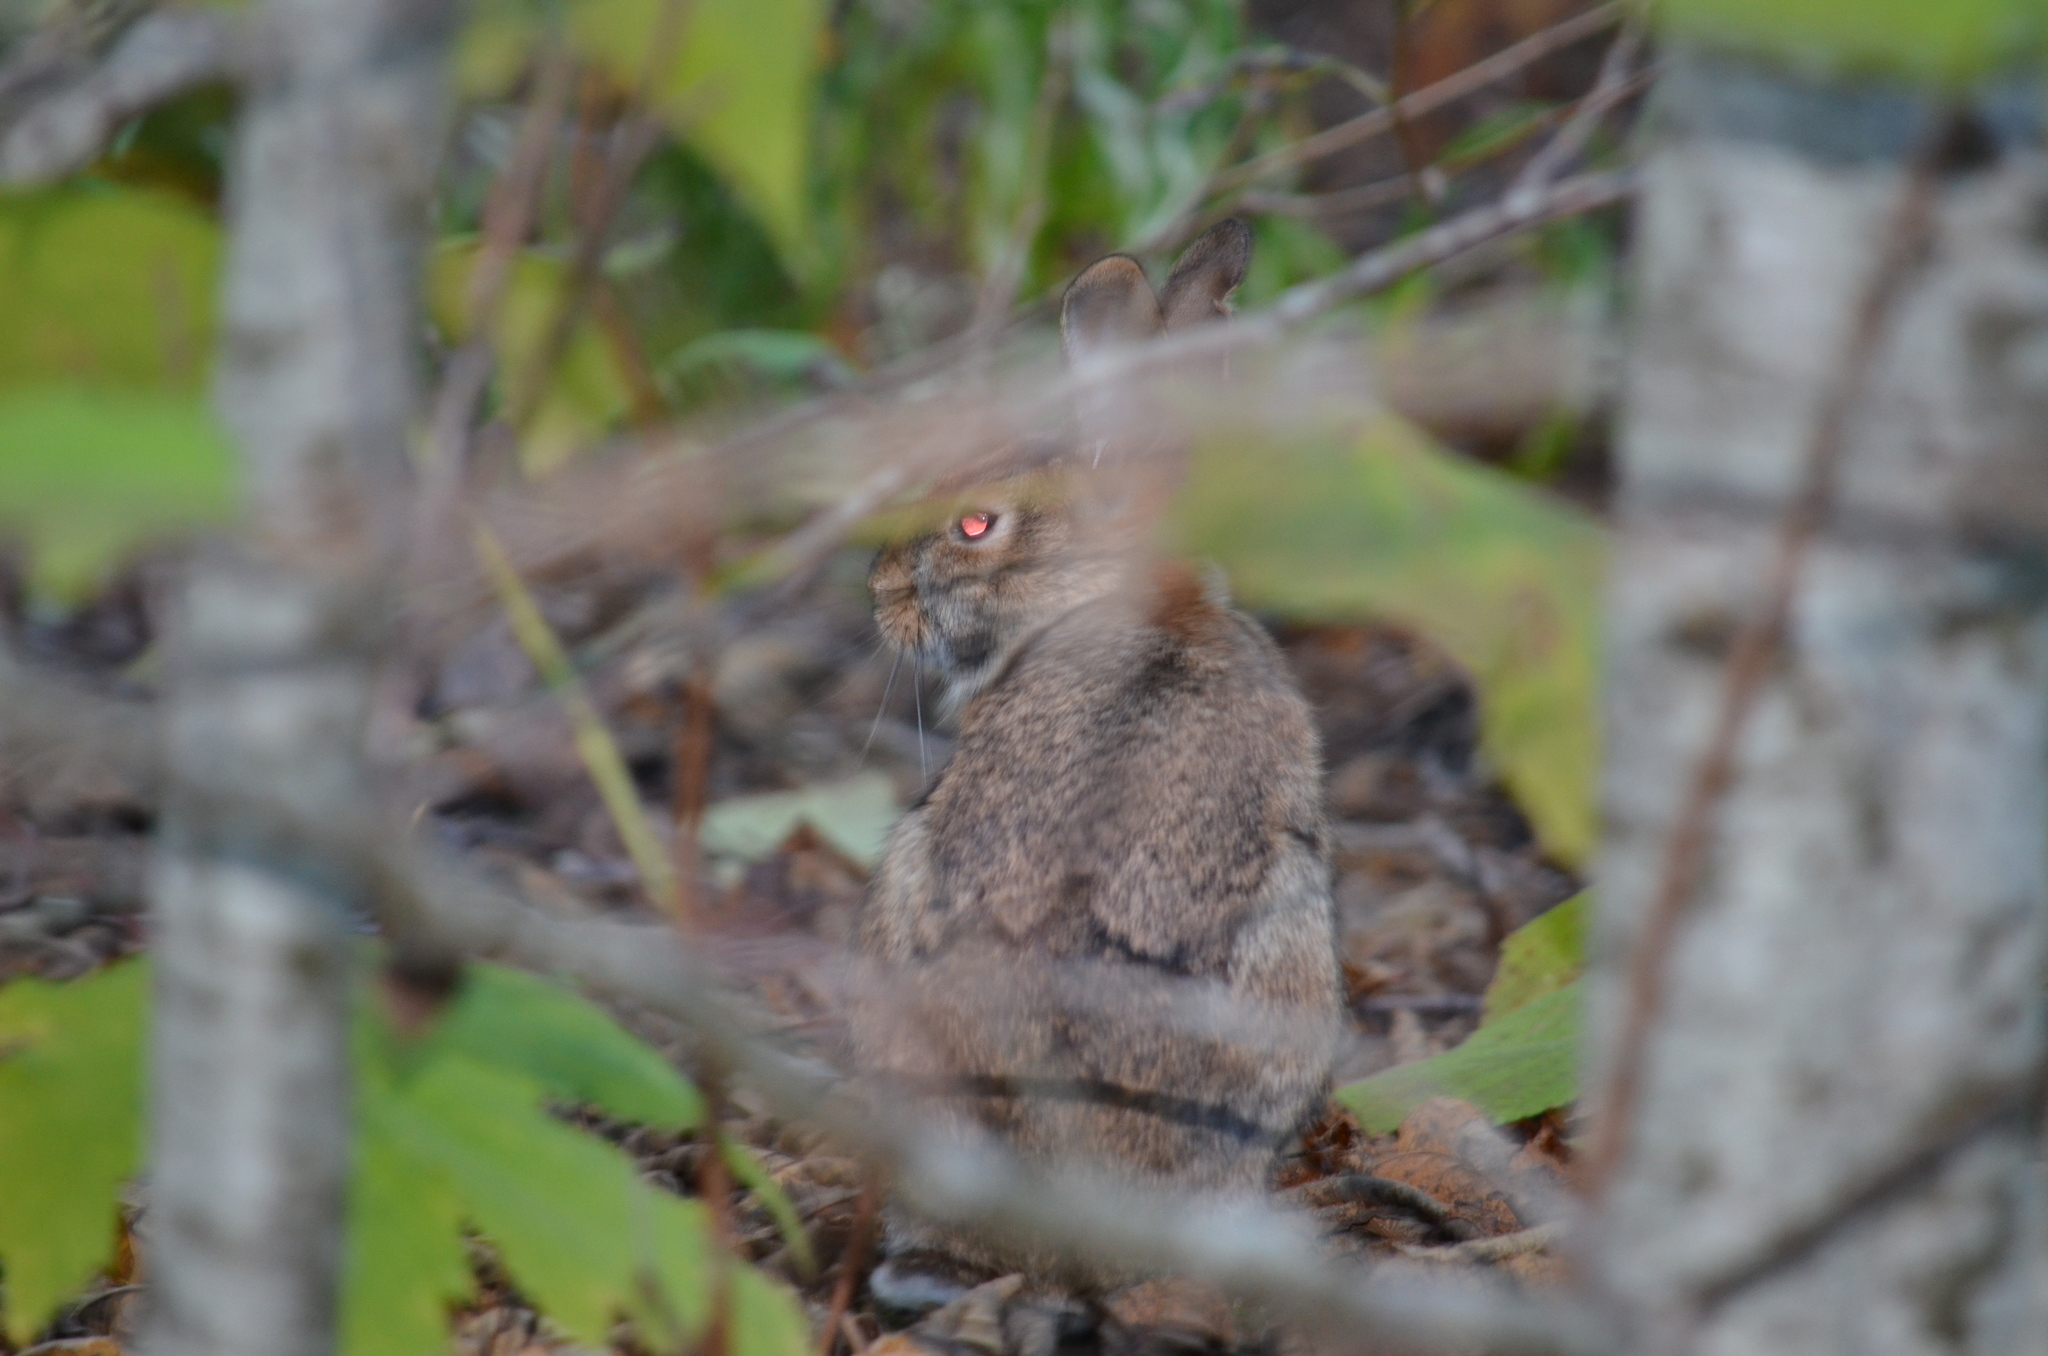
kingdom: Animalia
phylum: Chordata
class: Mammalia
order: Lagomorpha
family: Leporidae
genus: Sylvilagus
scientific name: Sylvilagus floridanus
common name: Eastern cottontail
